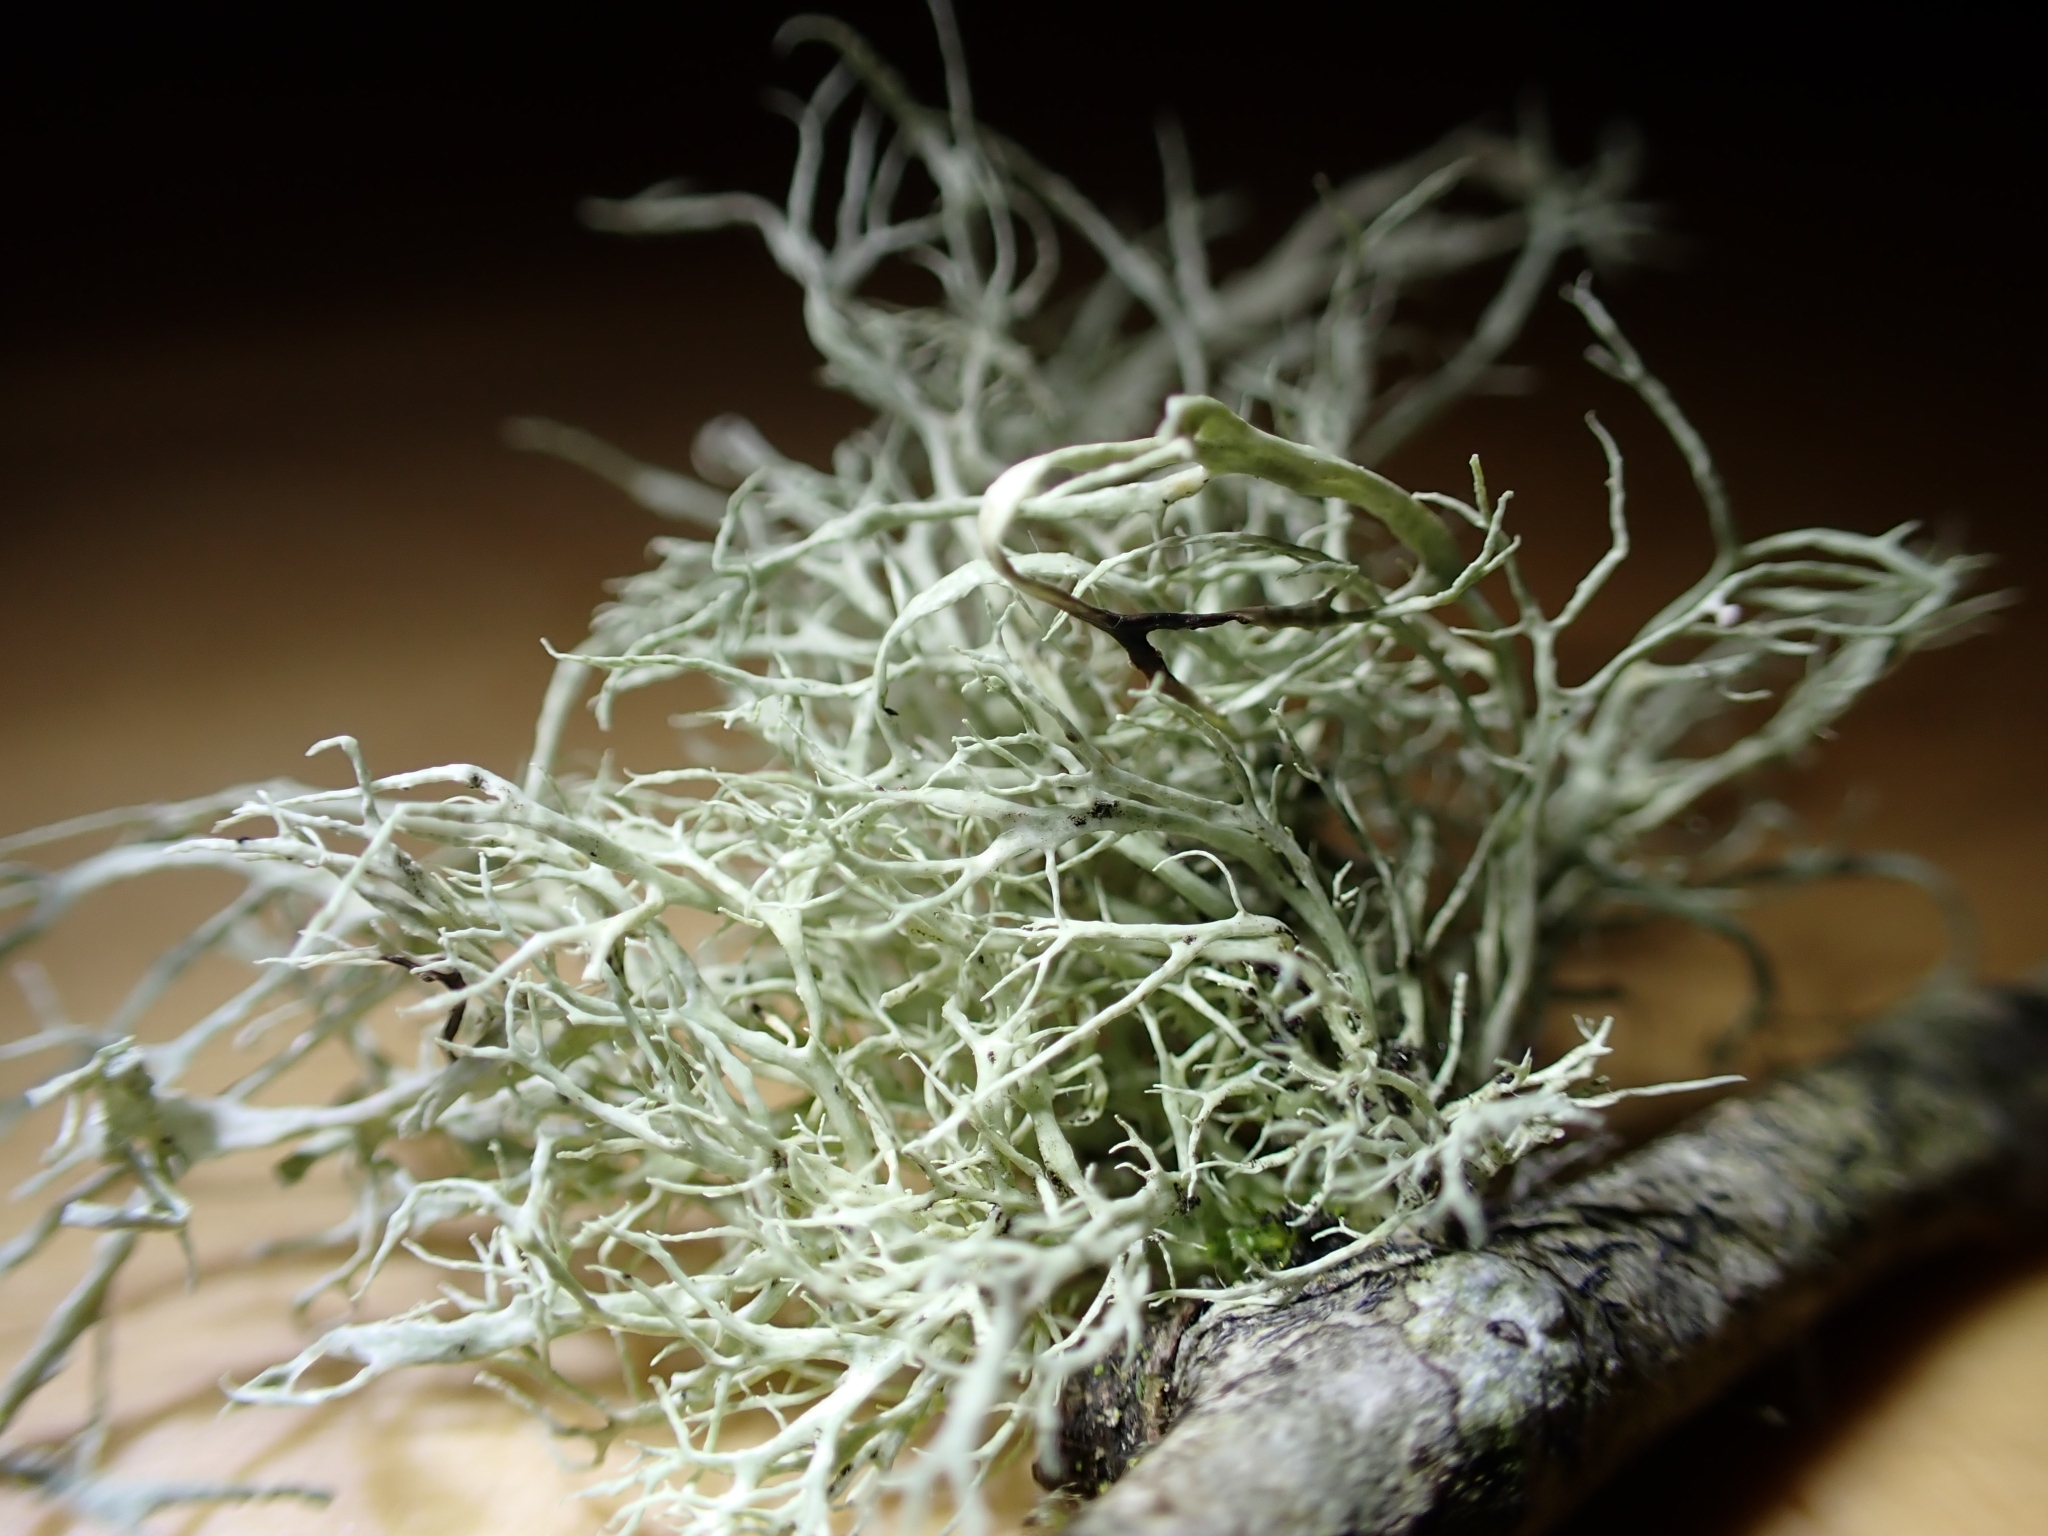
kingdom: Fungi
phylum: Ascomycota
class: Lecanoromycetes
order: Lecanorales
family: Ramalinaceae
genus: Ramalina
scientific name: Ramalina farinacea
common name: Farinose cartilage lichen
